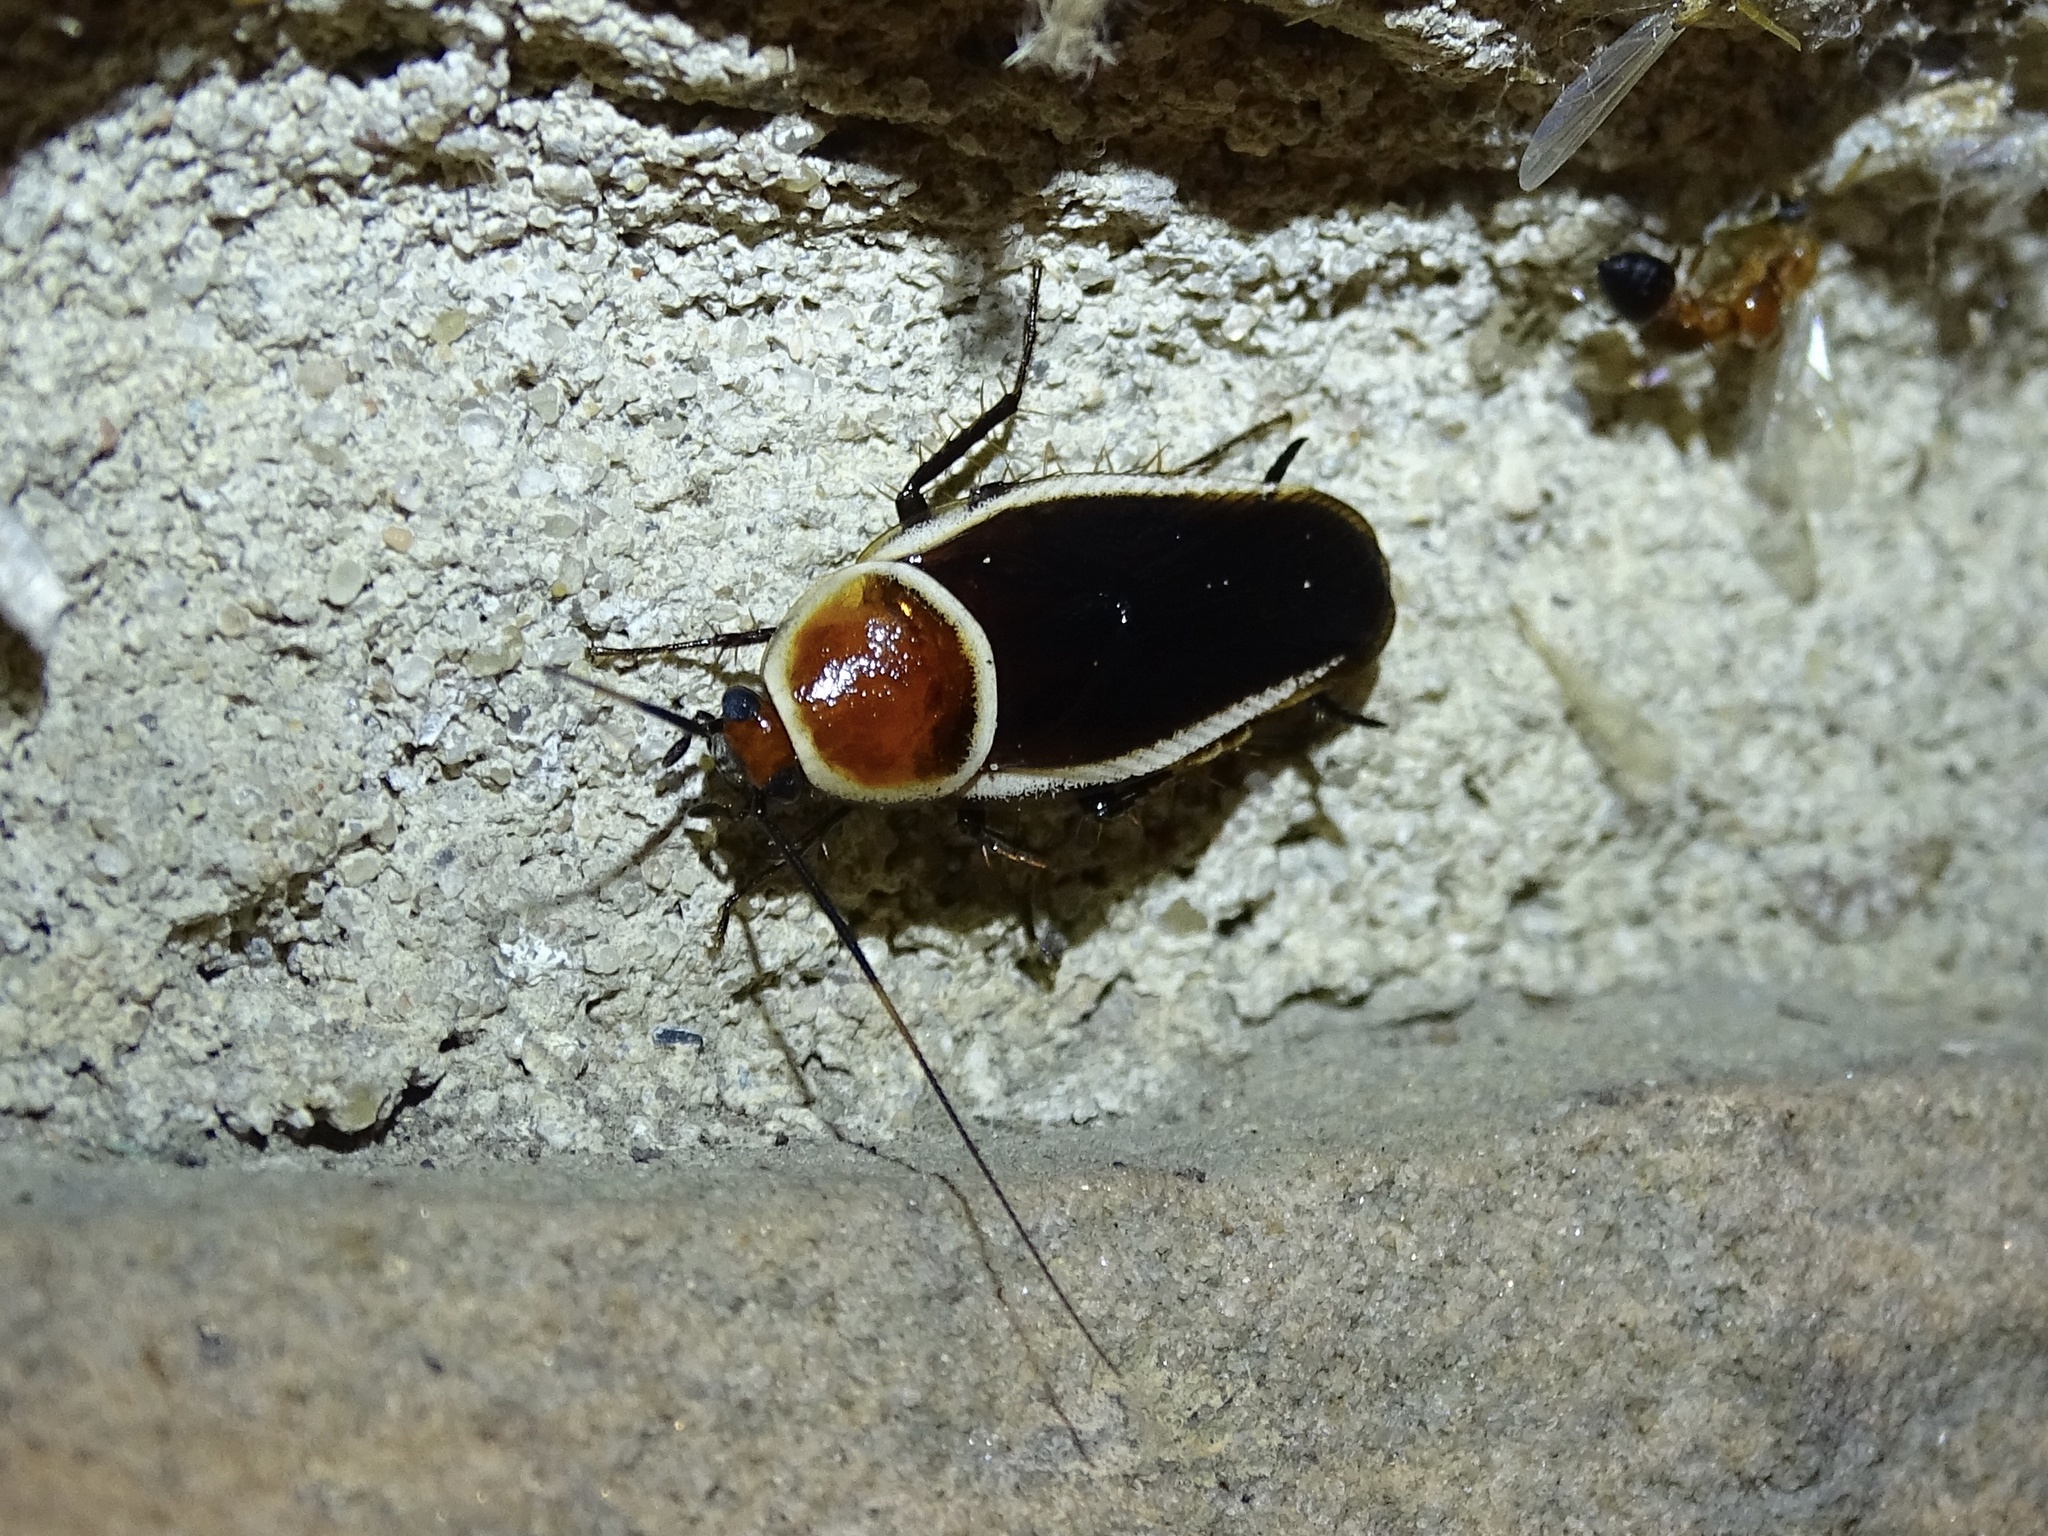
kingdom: Animalia
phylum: Arthropoda
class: Insecta
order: Blattodea
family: Ectobiidae
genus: Pseudomops
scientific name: Pseudomops septentrionalis
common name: Pale-bordered field cockroach
